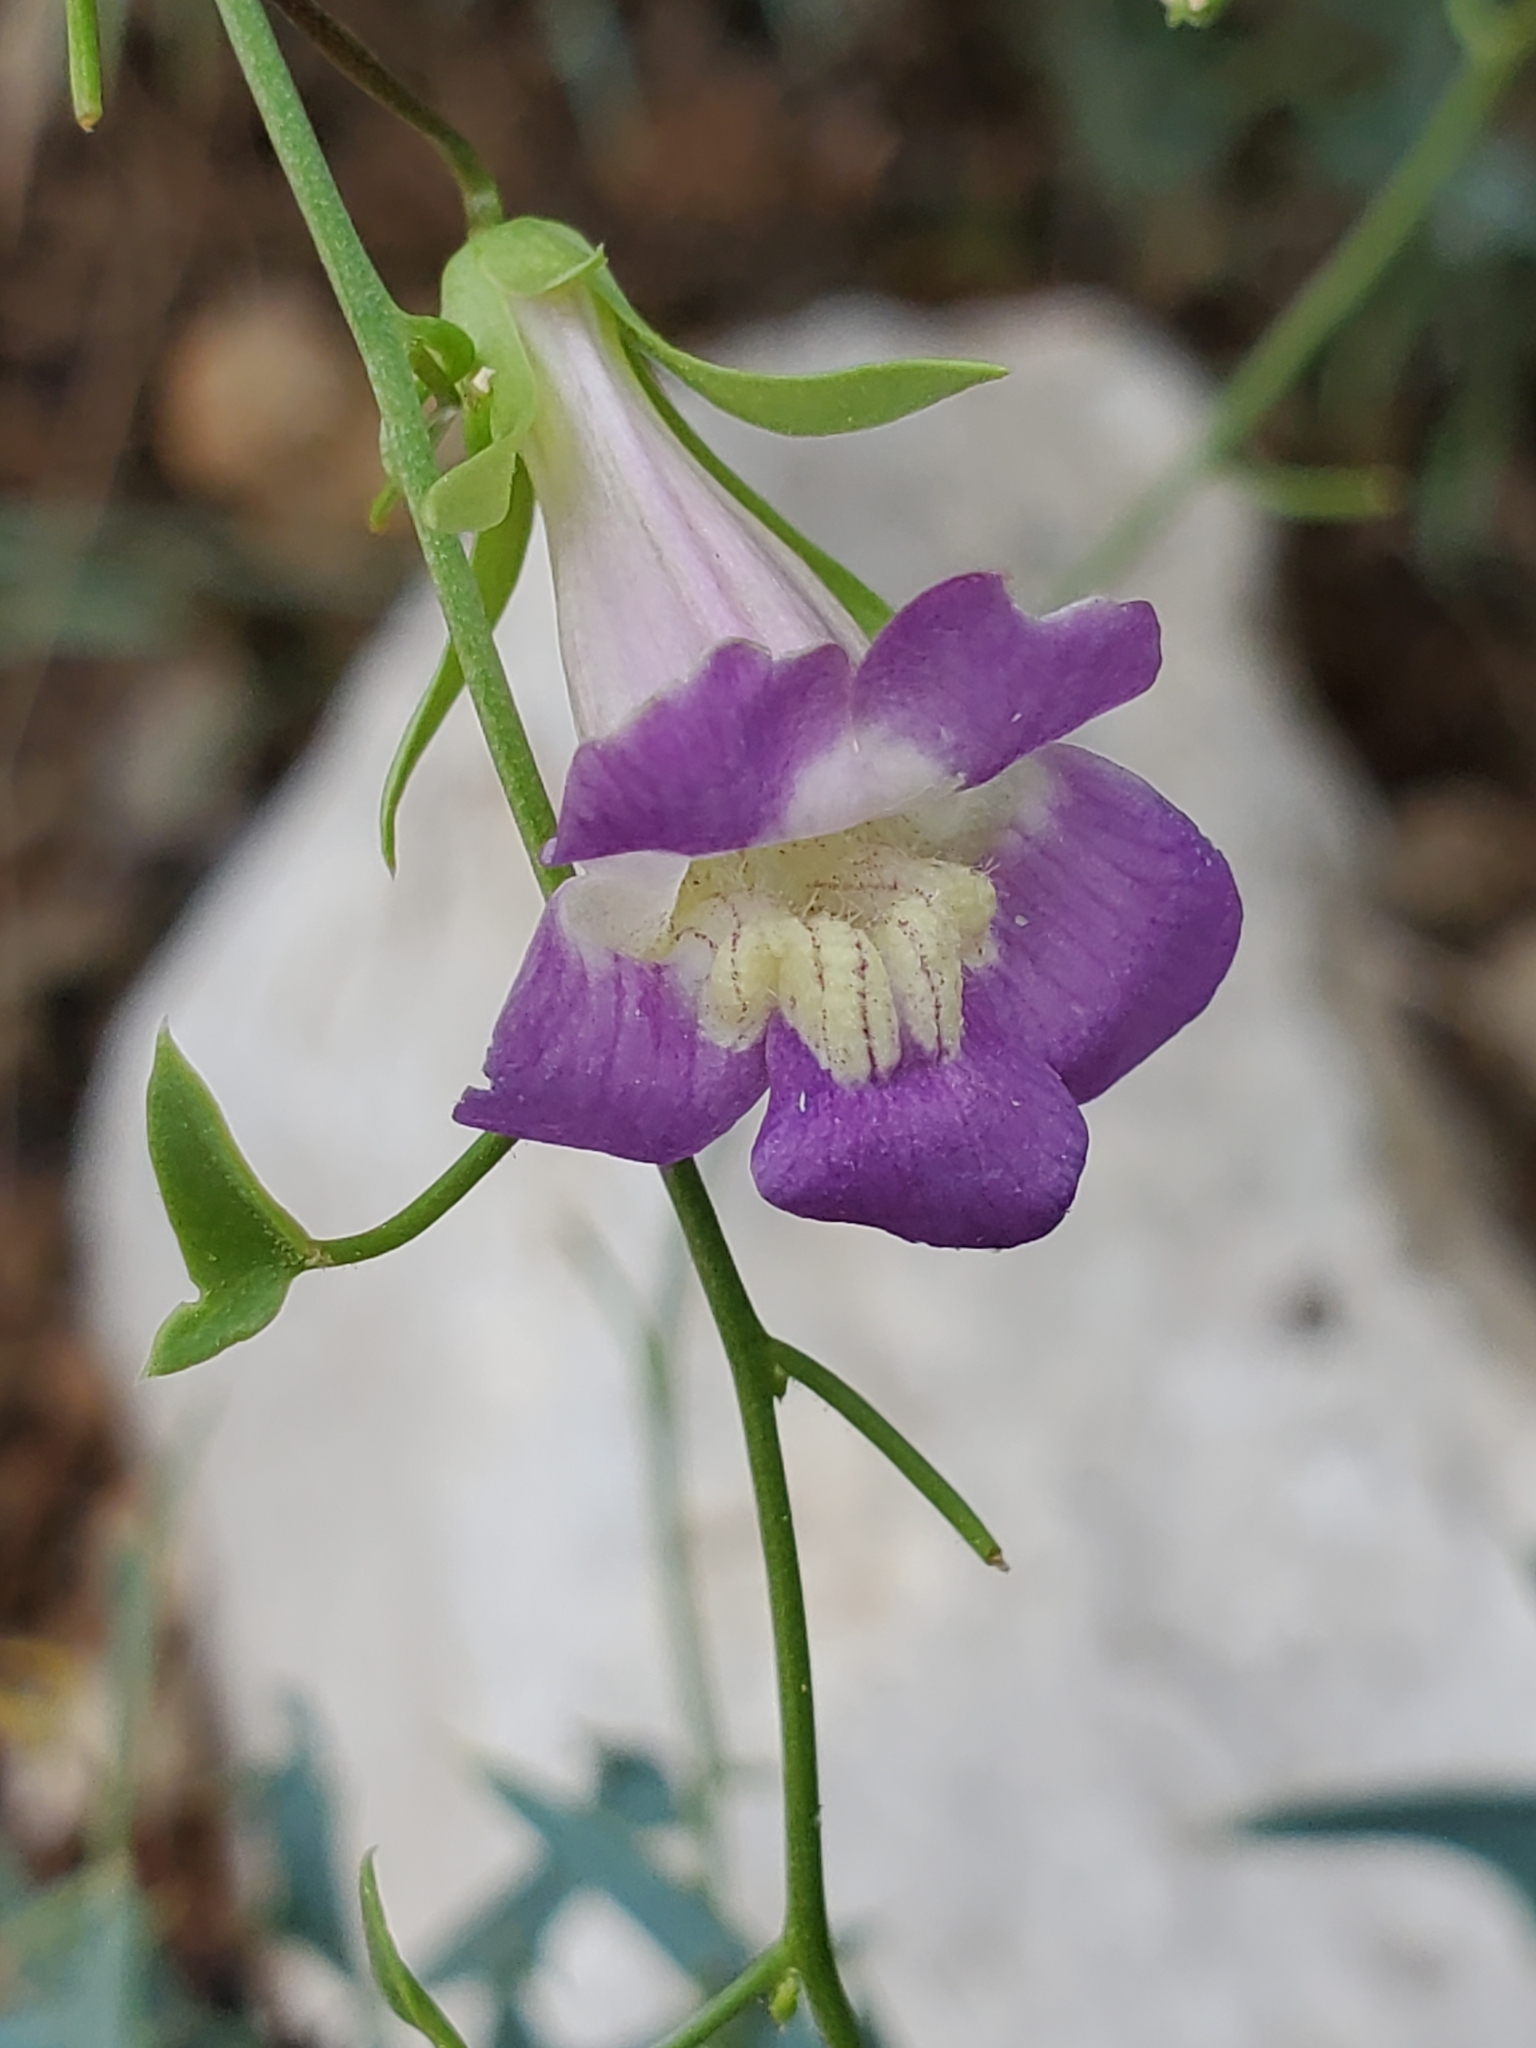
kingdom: Plantae
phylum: Tracheophyta
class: Magnoliopsida
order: Lamiales
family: Plantaginaceae
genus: Maurandella
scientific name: Maurandella antirrhiniflora
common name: Violet twining-snapdragon
